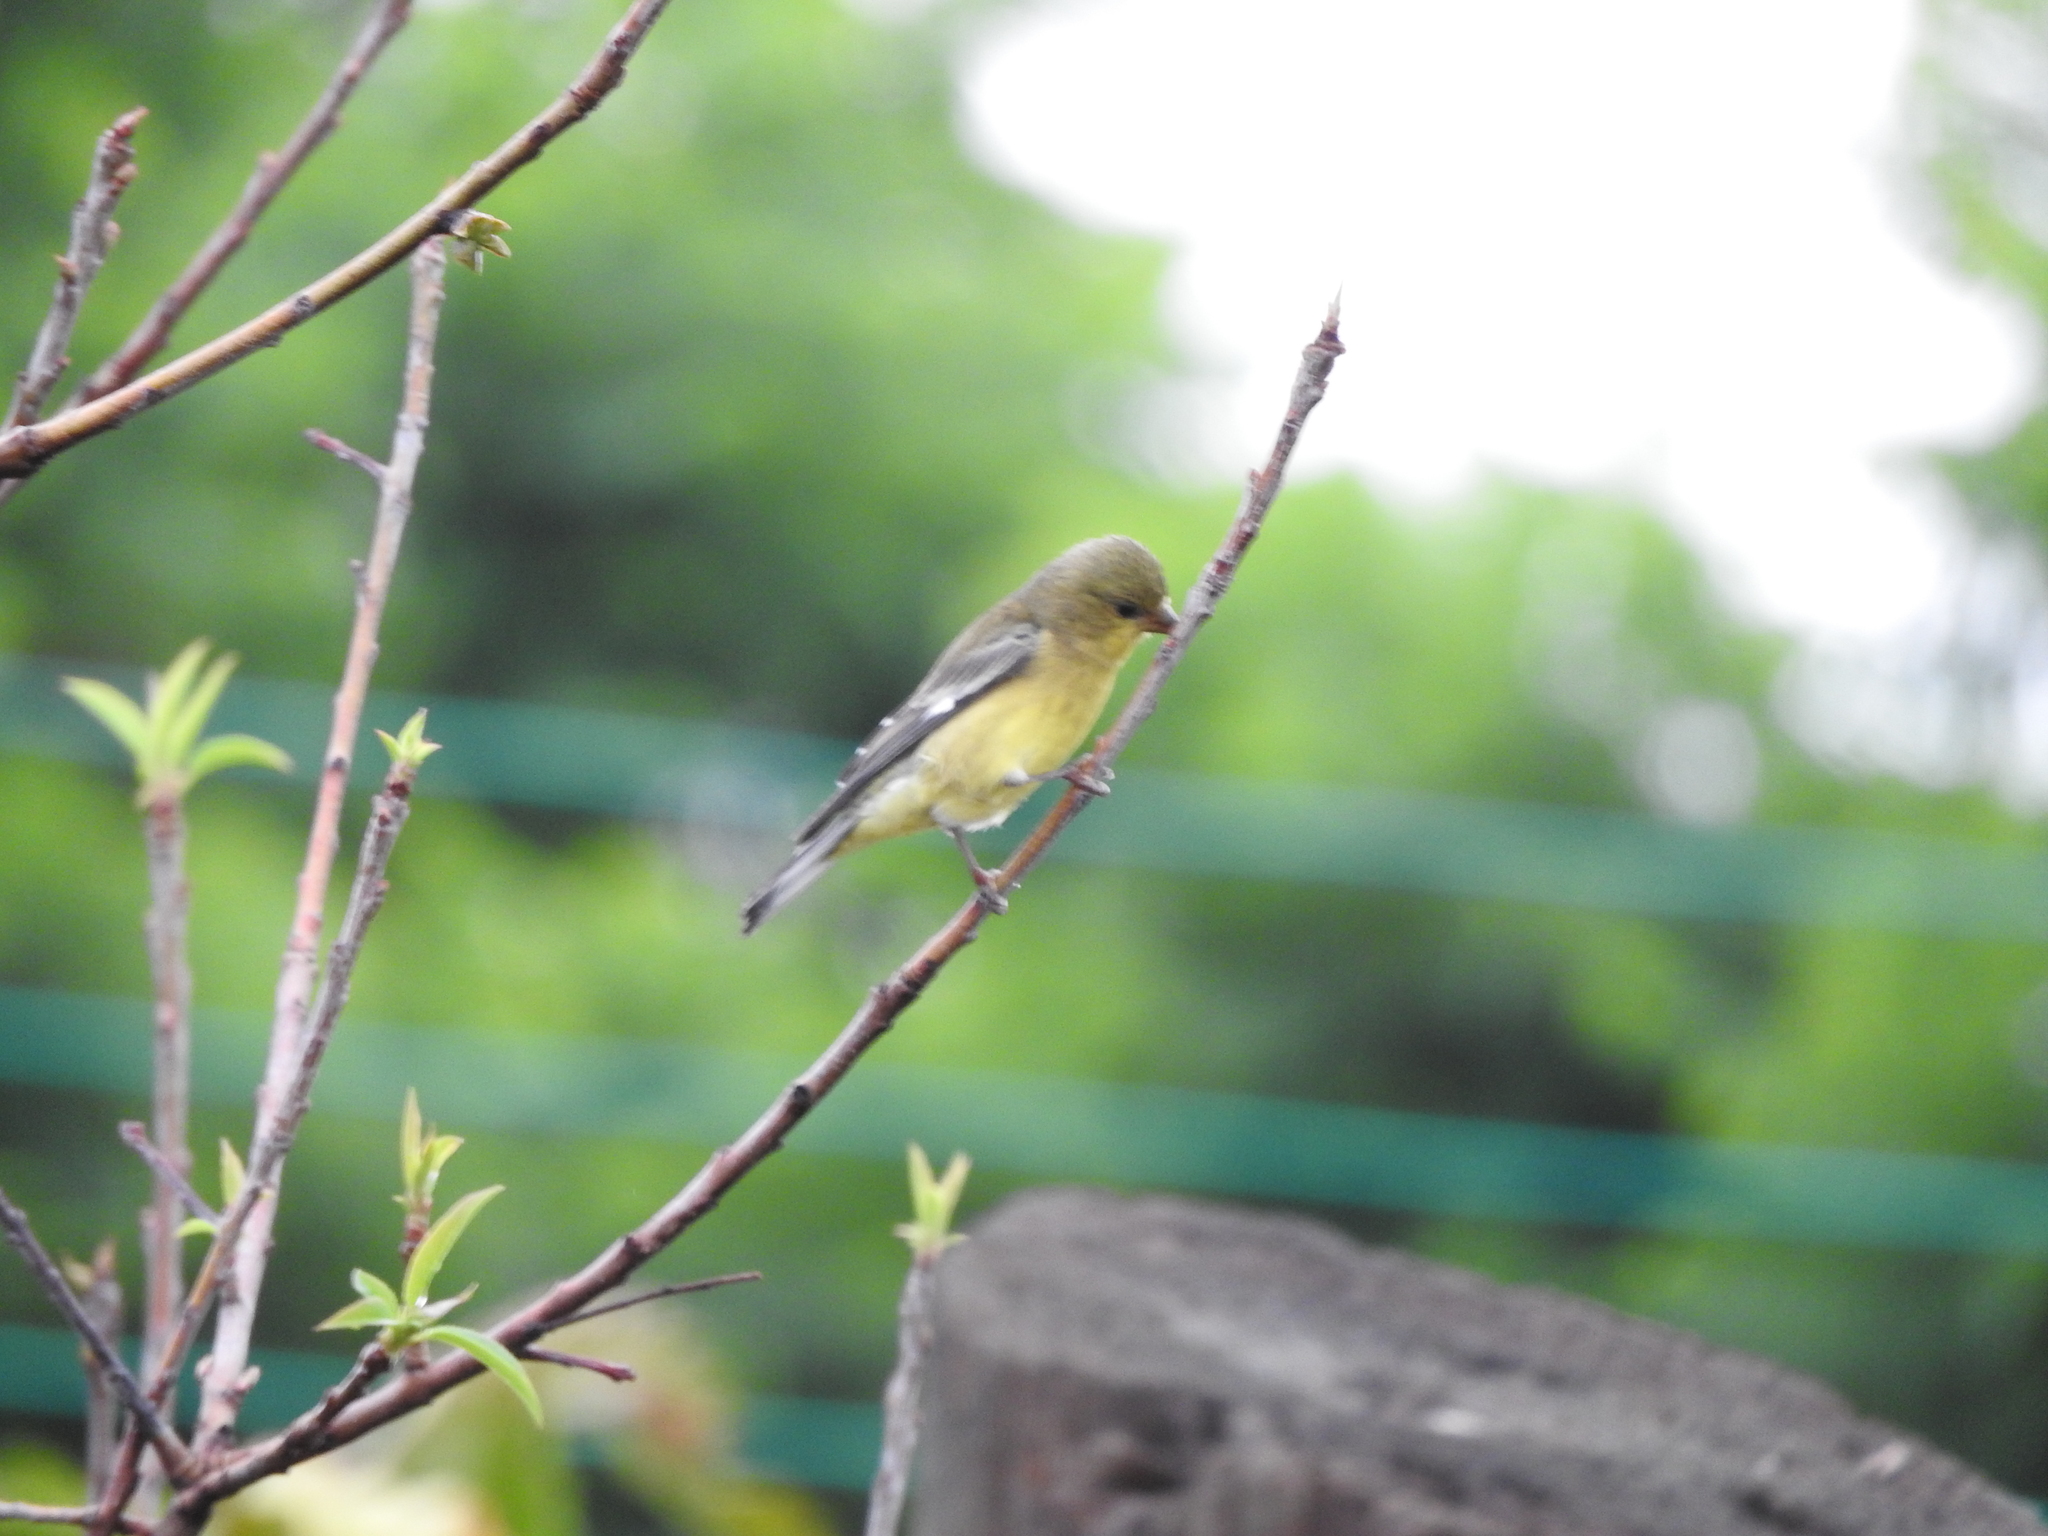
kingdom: Animalia
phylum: Chordata
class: Aves
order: Passeriformes
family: Fringillidae
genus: Spinus
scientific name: Spinus psaltria
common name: Lesser goldfinch
